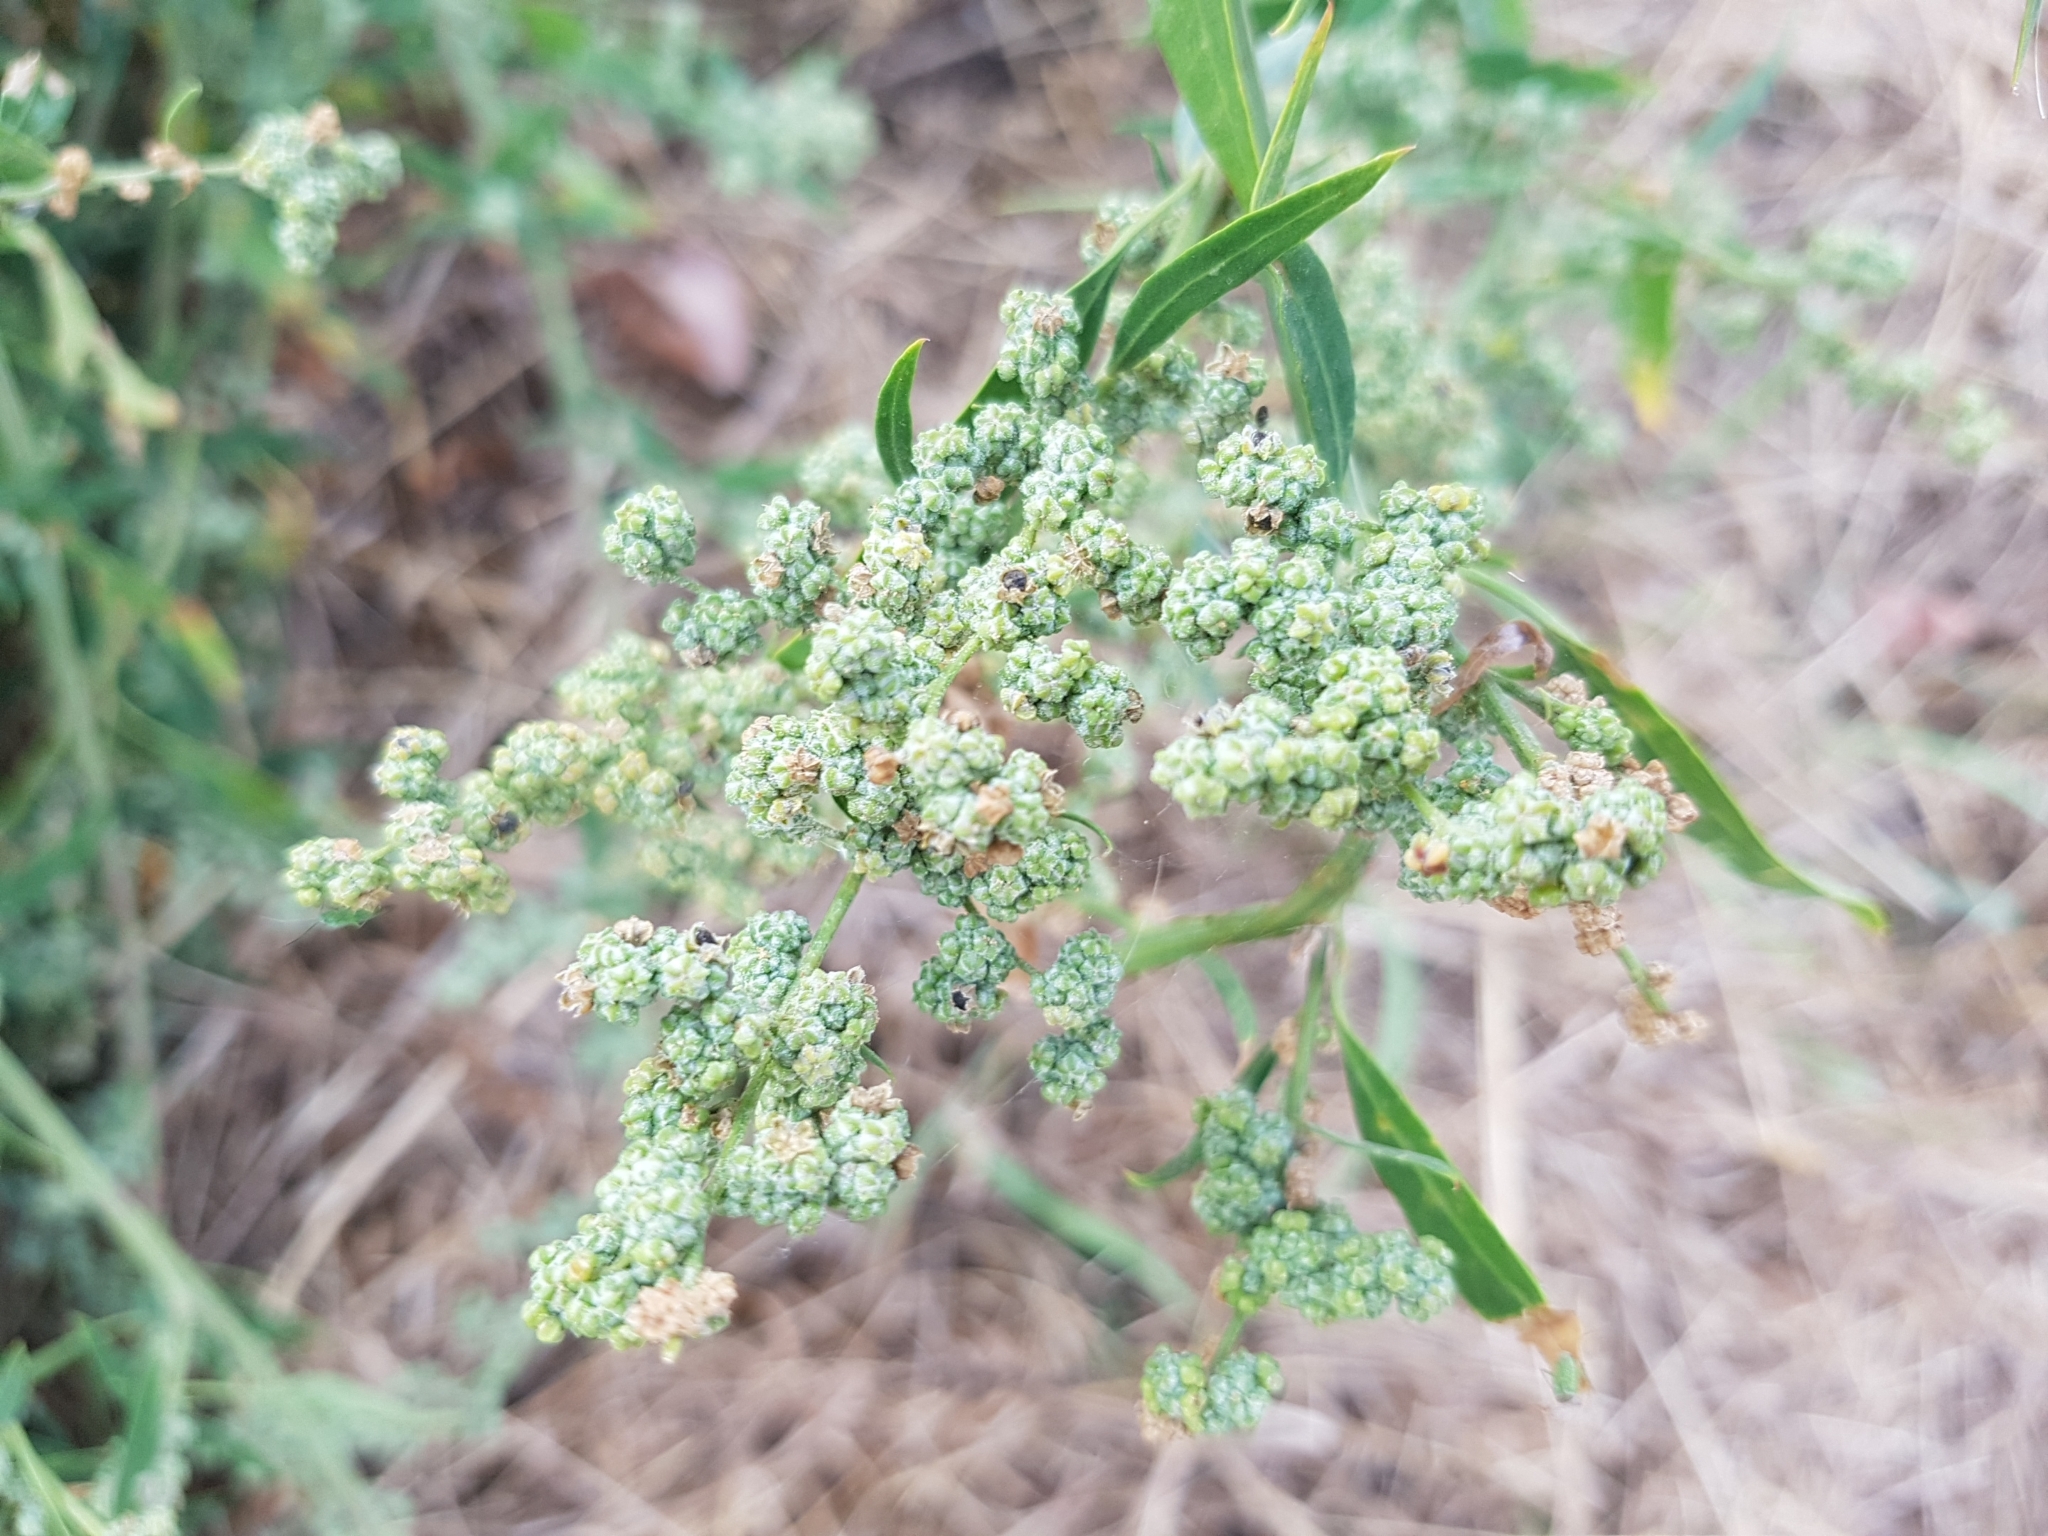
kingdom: Plantae
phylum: Tracheophyta
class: Magnoliopsida
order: Caryophyllales
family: Amaranthaceae
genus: Chenopodium
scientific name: Chenopodium album
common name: Fat-hen
